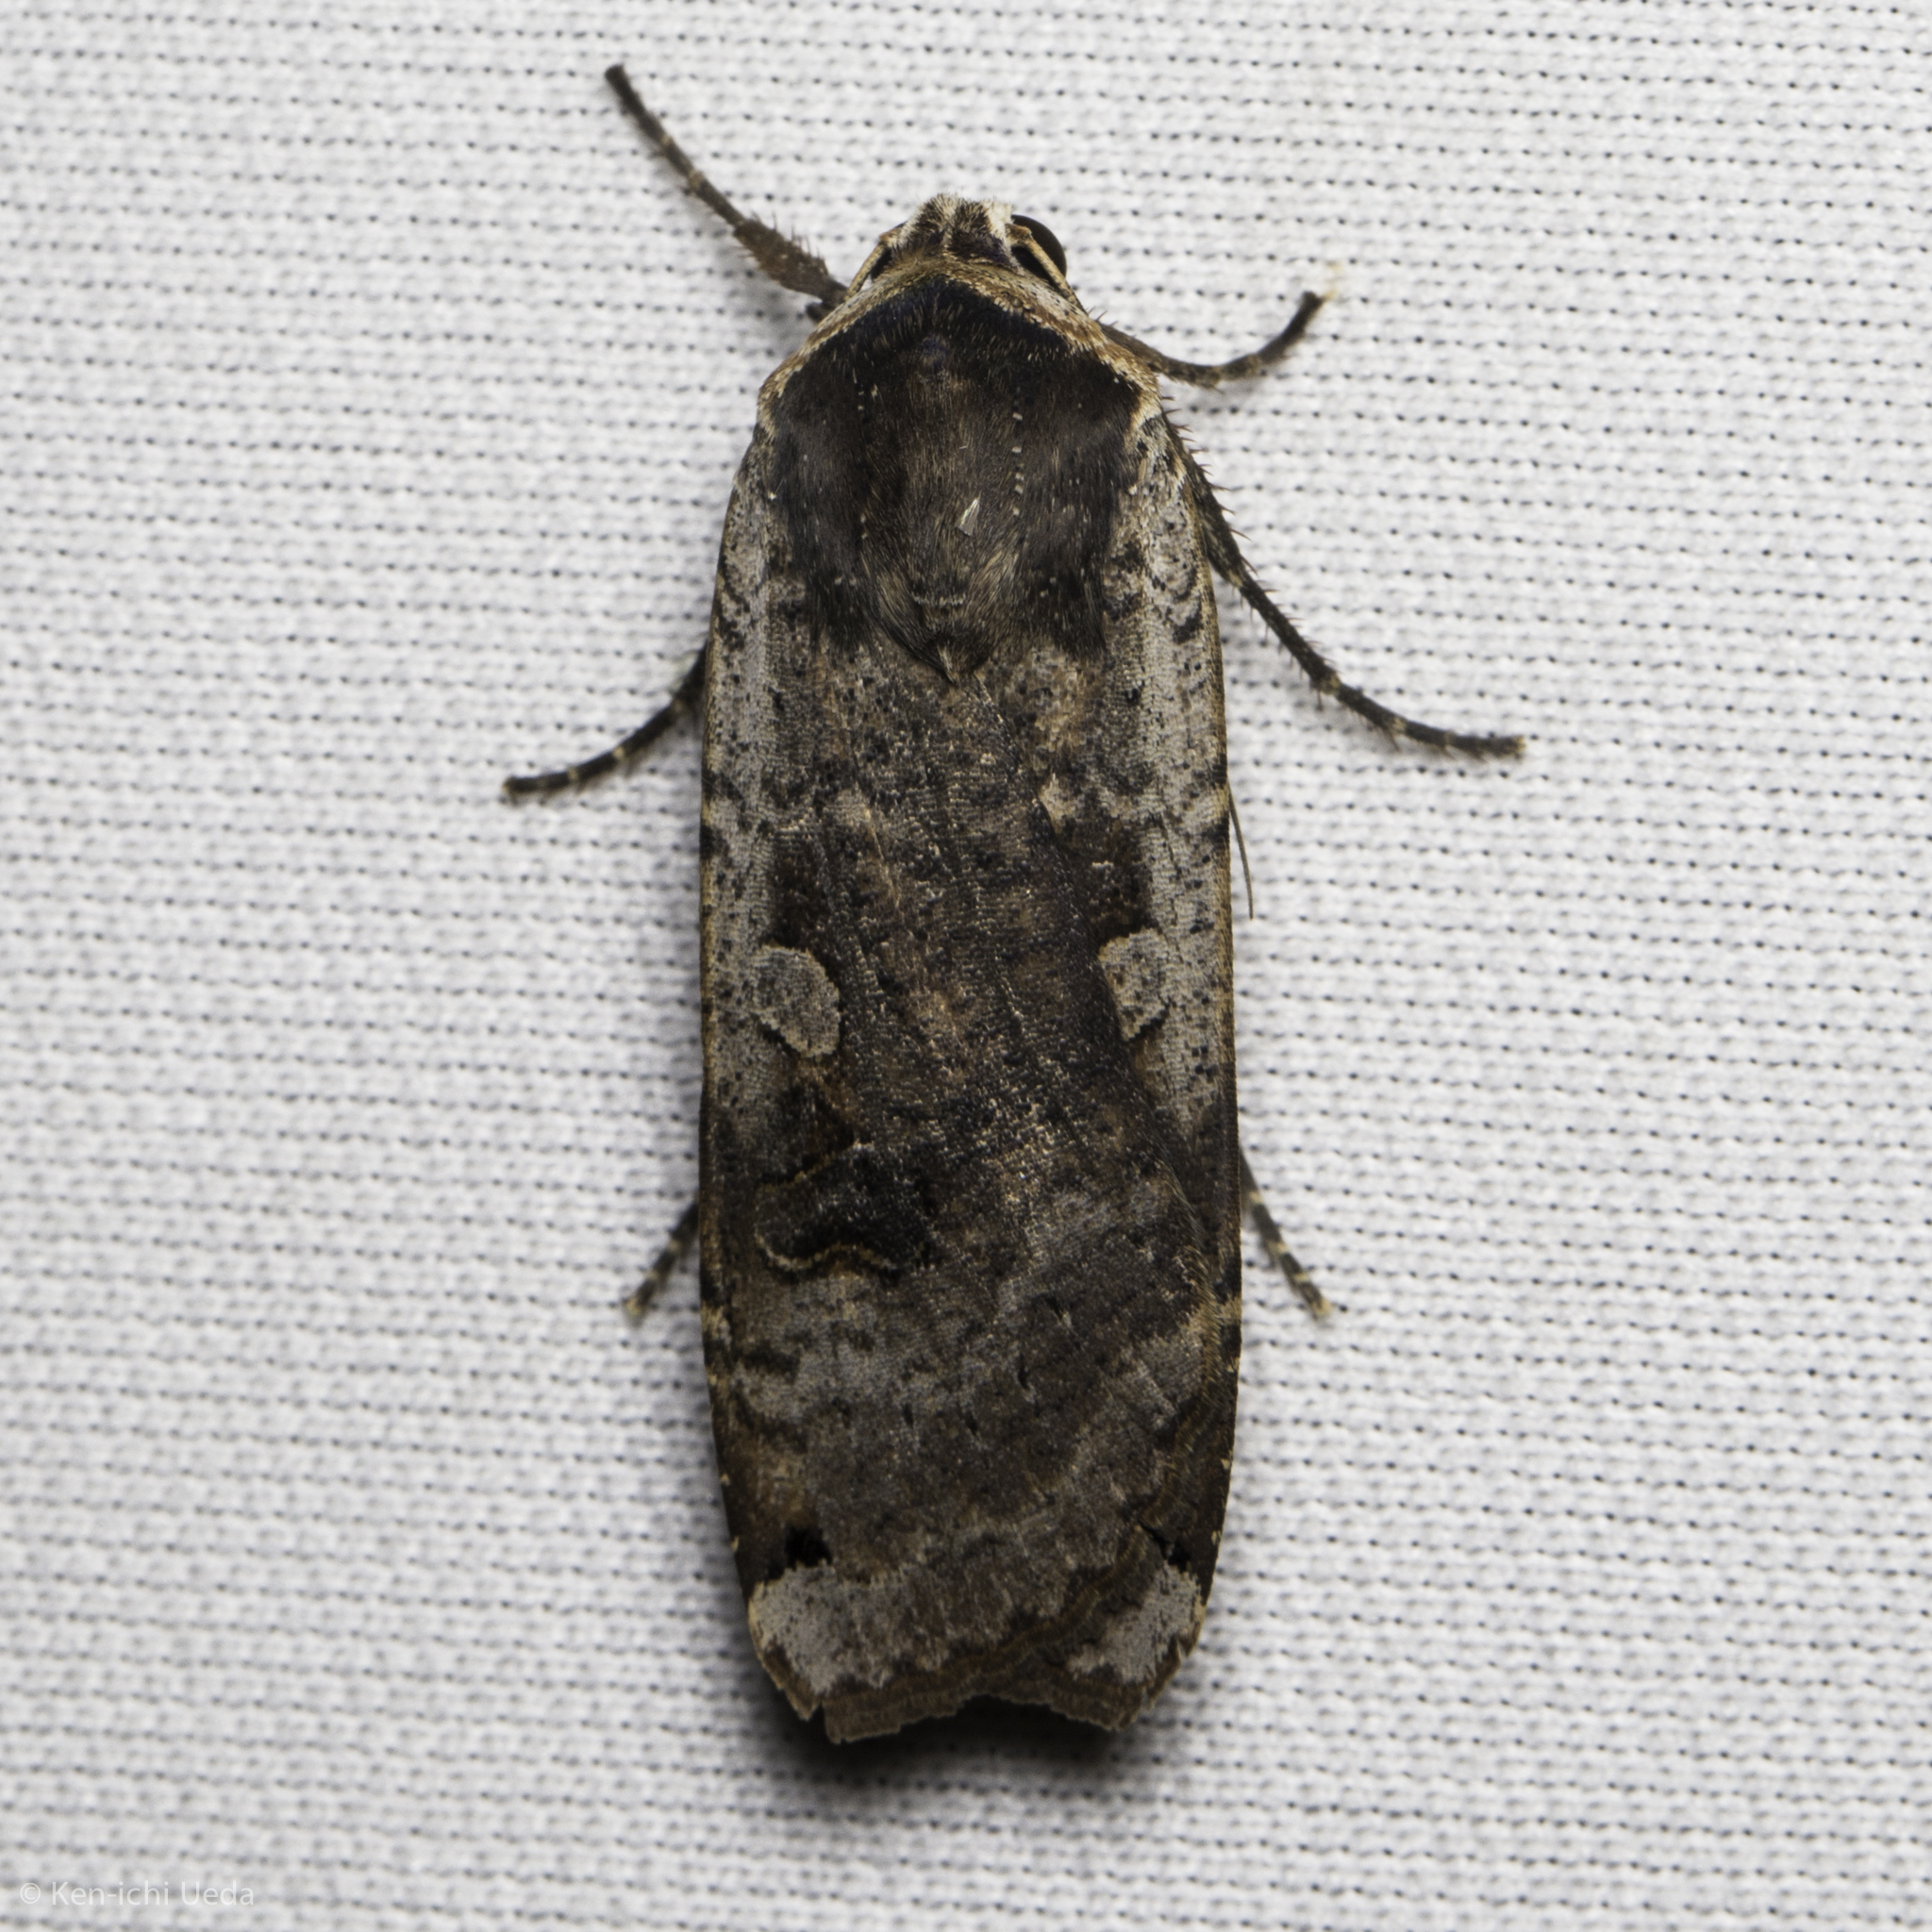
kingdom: Animalia
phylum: Arthropoda
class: Insecta
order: Lepidoptera
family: Noctuidae
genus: Noctua
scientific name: Noctua pronuba
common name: Large yellow underwing
